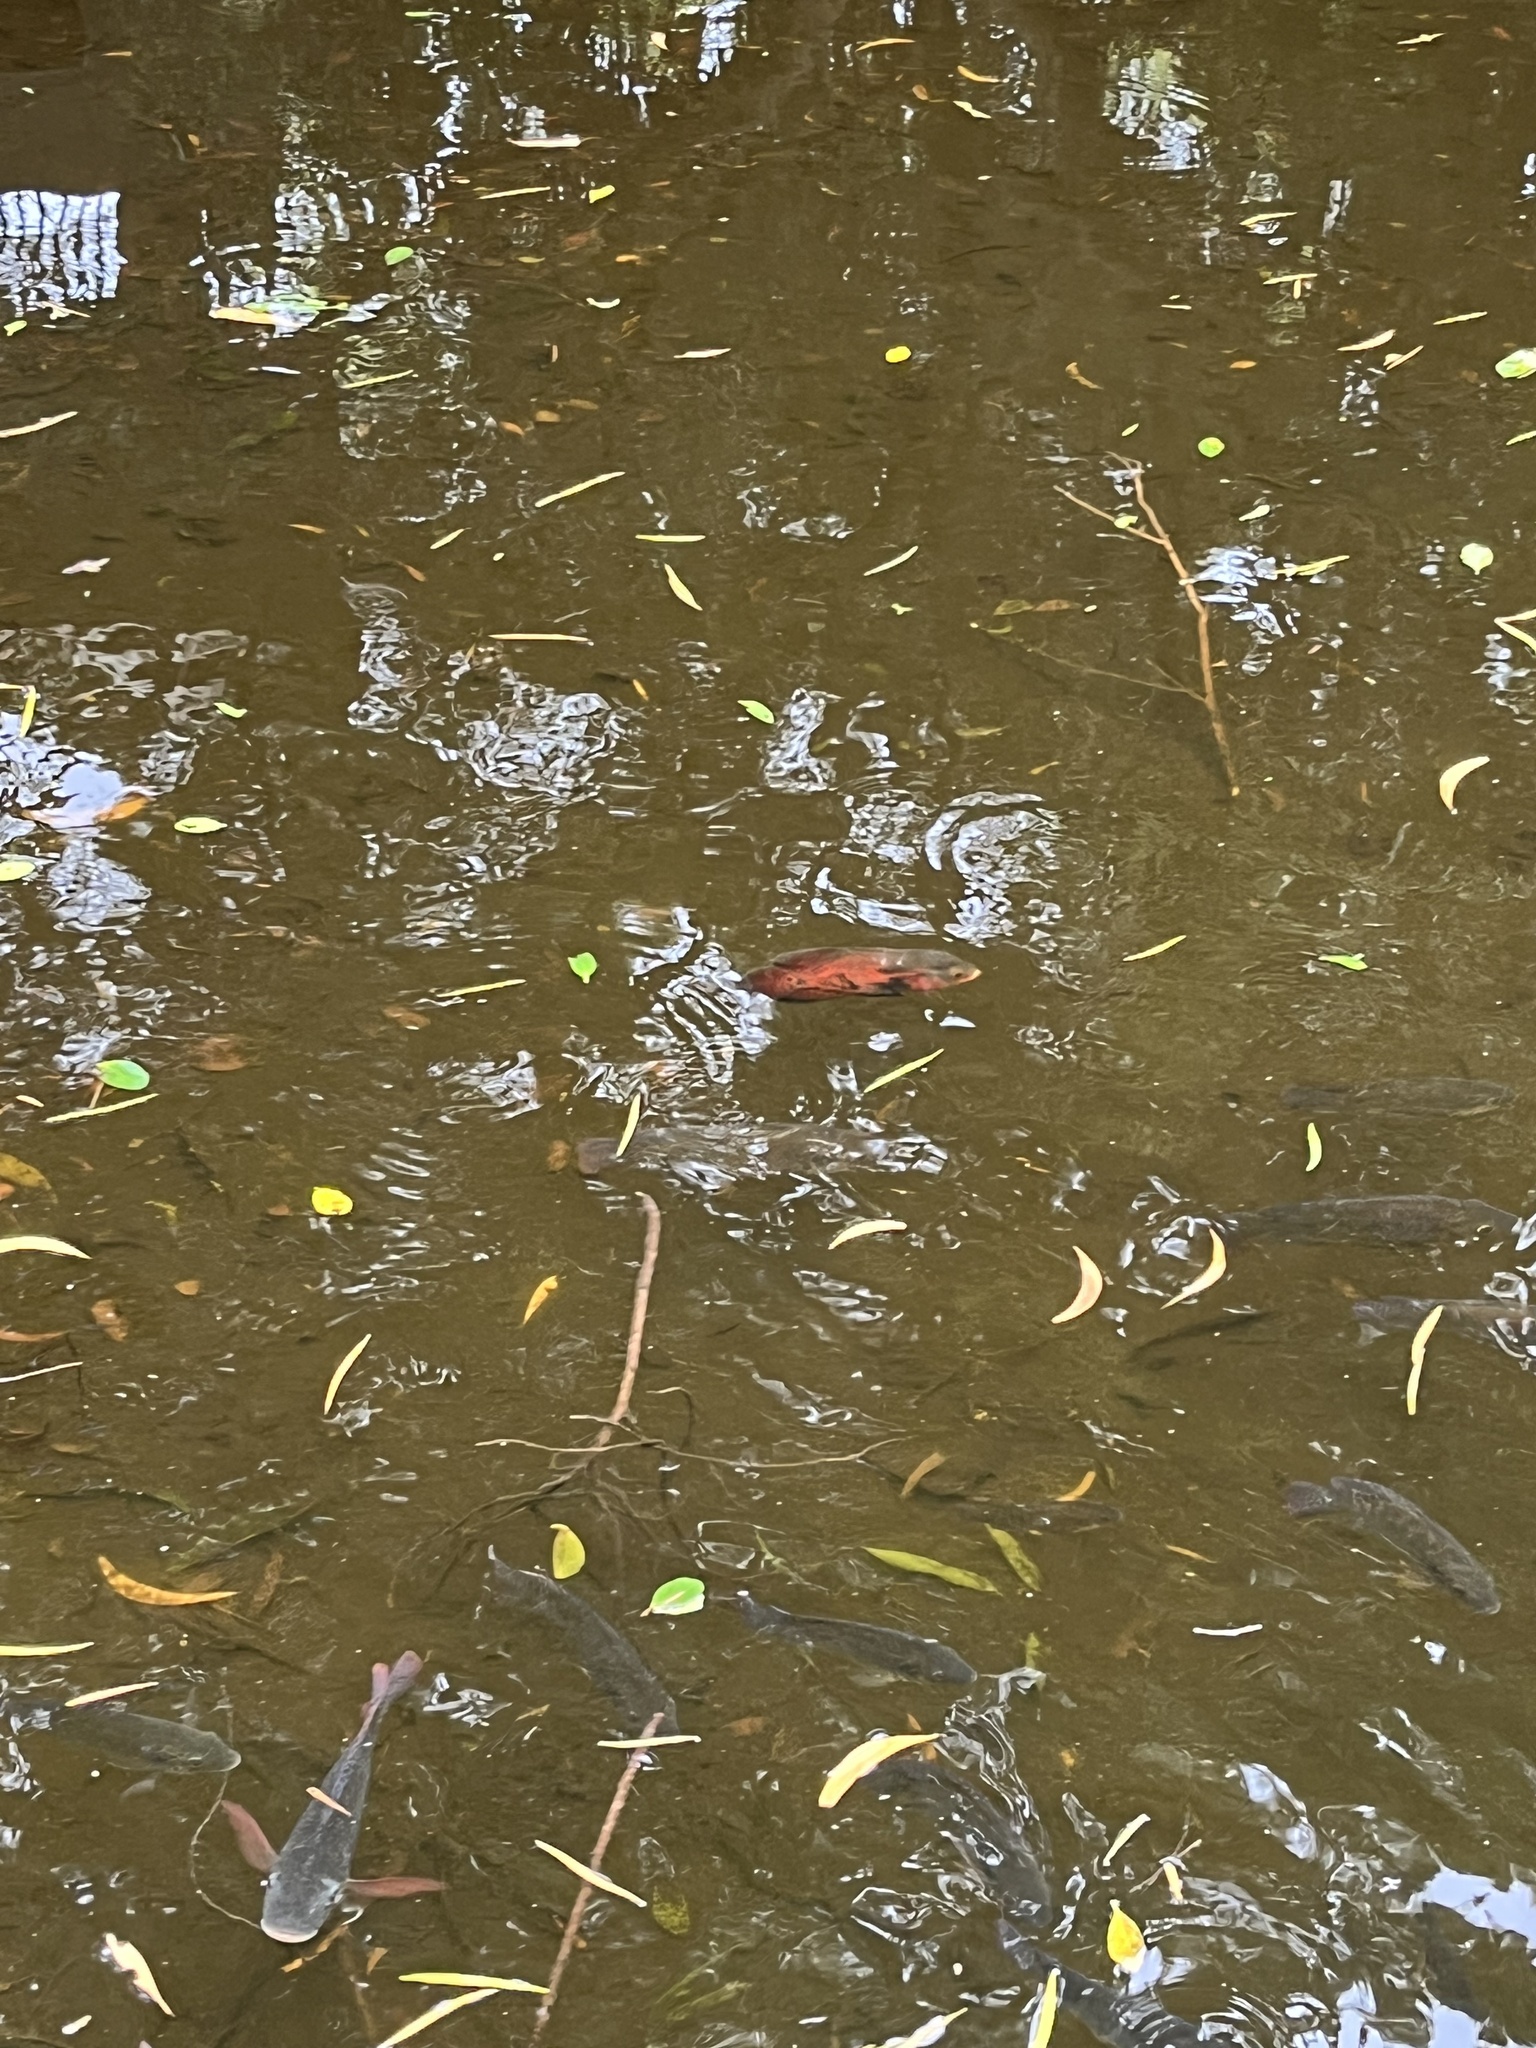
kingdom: Animalia
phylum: Chordata
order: Perciformes
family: Cichlidae
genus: Astronotus
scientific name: Astronotus ocellatus
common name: Oscar
